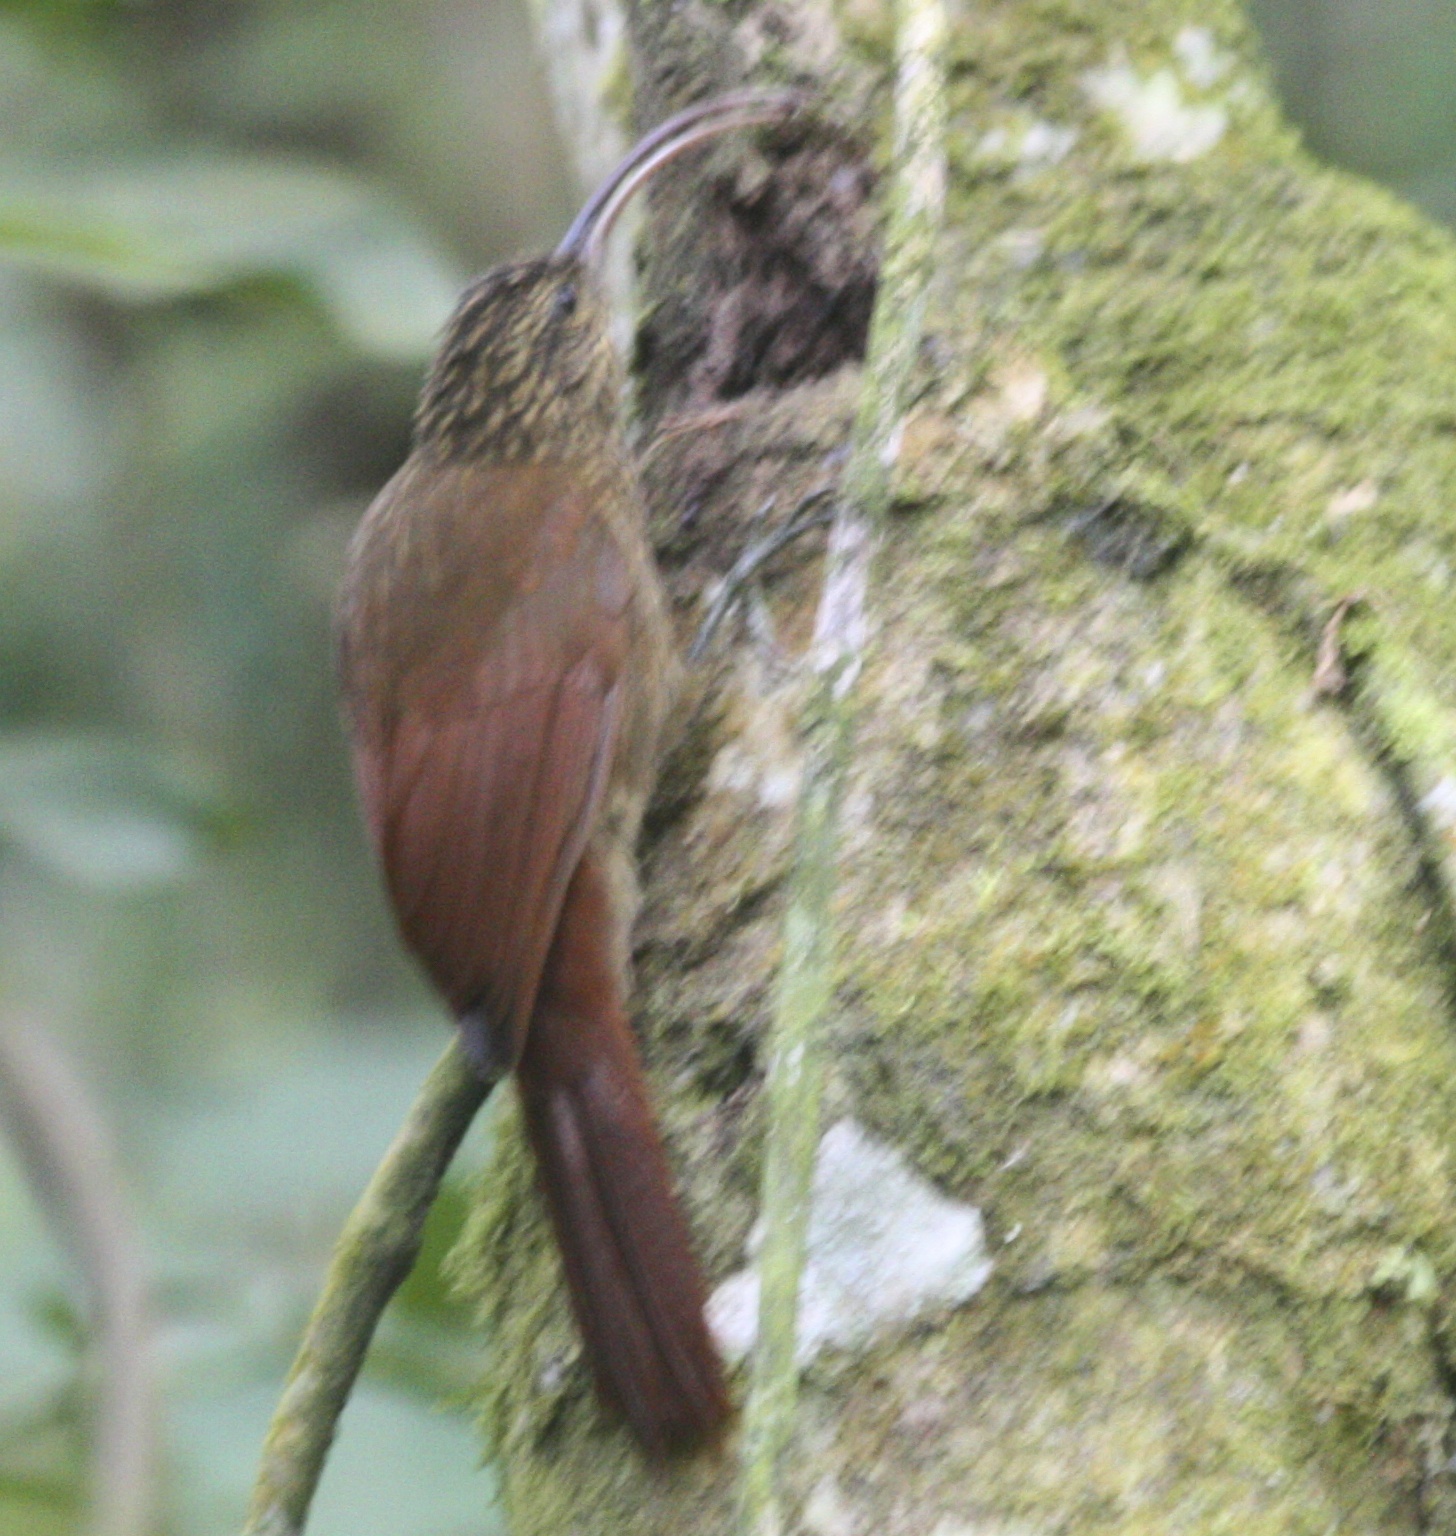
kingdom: Animalia
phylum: Chordata
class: Aves
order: Passeriformes
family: Furnariidae
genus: Campylorhamphus
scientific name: Campylorhamphus pusillus
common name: Brown-billed scythebill
